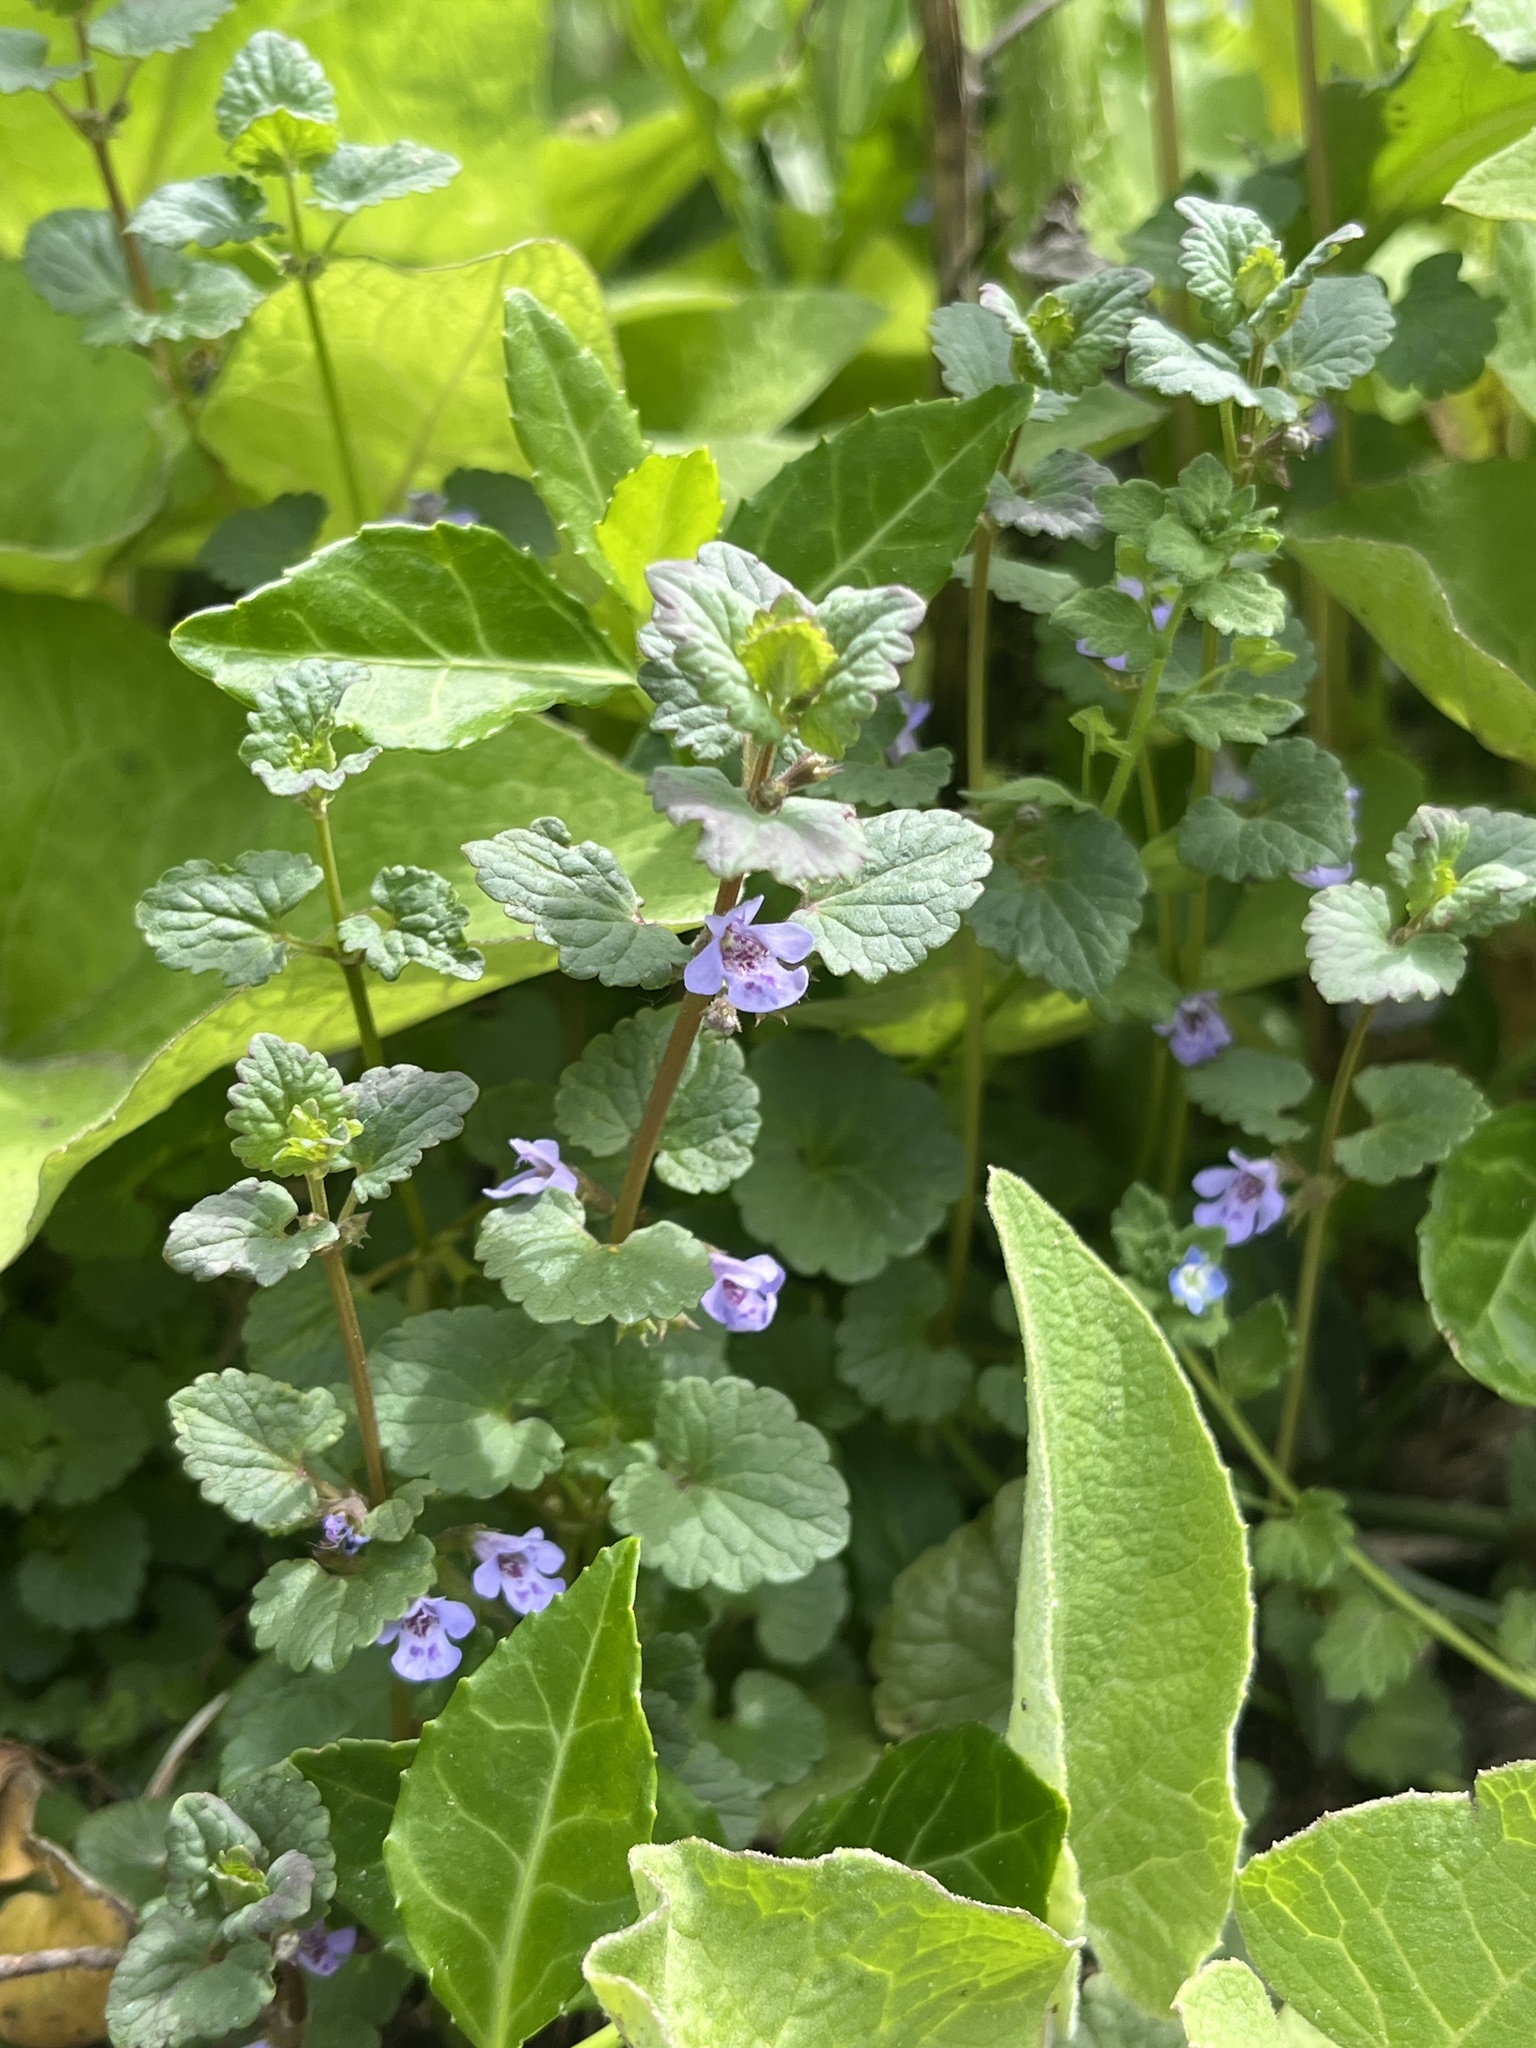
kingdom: Plantae
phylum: Tracheophyta
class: Magnoliopsida
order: Lamiales
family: Lamiaceae
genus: Glechoma
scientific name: Glechoma hederacea
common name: Ground ivy
